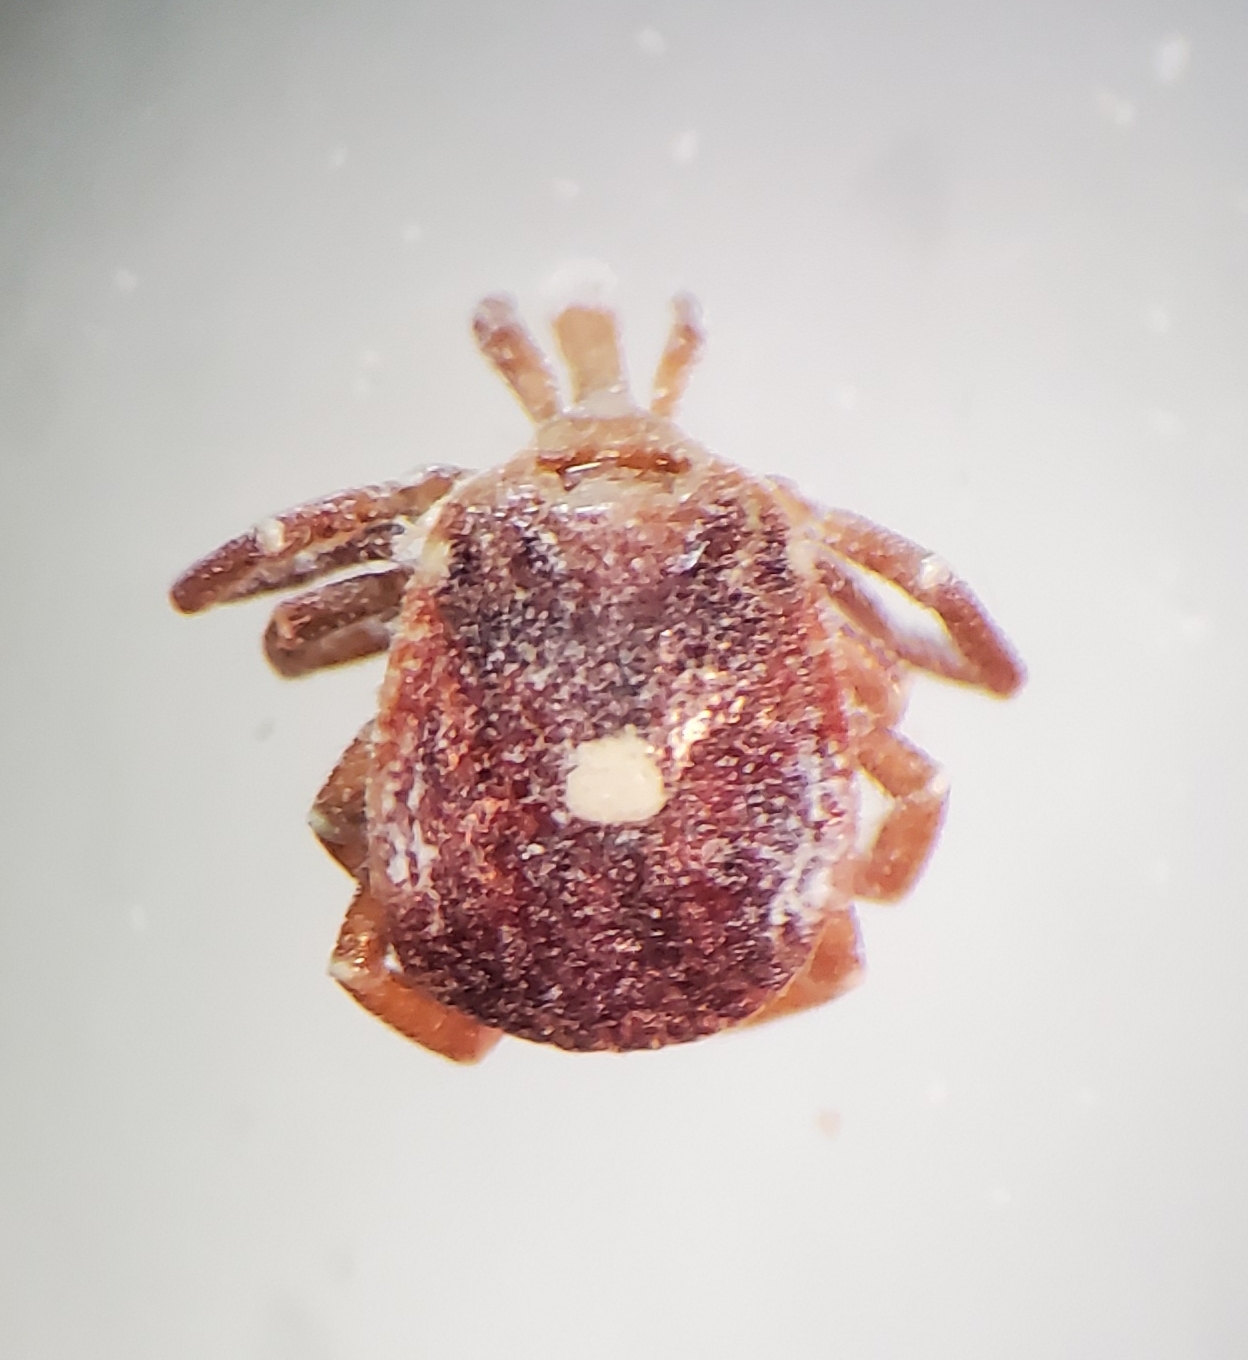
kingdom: Animalia
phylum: Arthropoda
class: Arachnida
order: Ixodida
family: Ixodidae
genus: Amblyomma
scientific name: Amblyomma americanum
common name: Lone star tick
